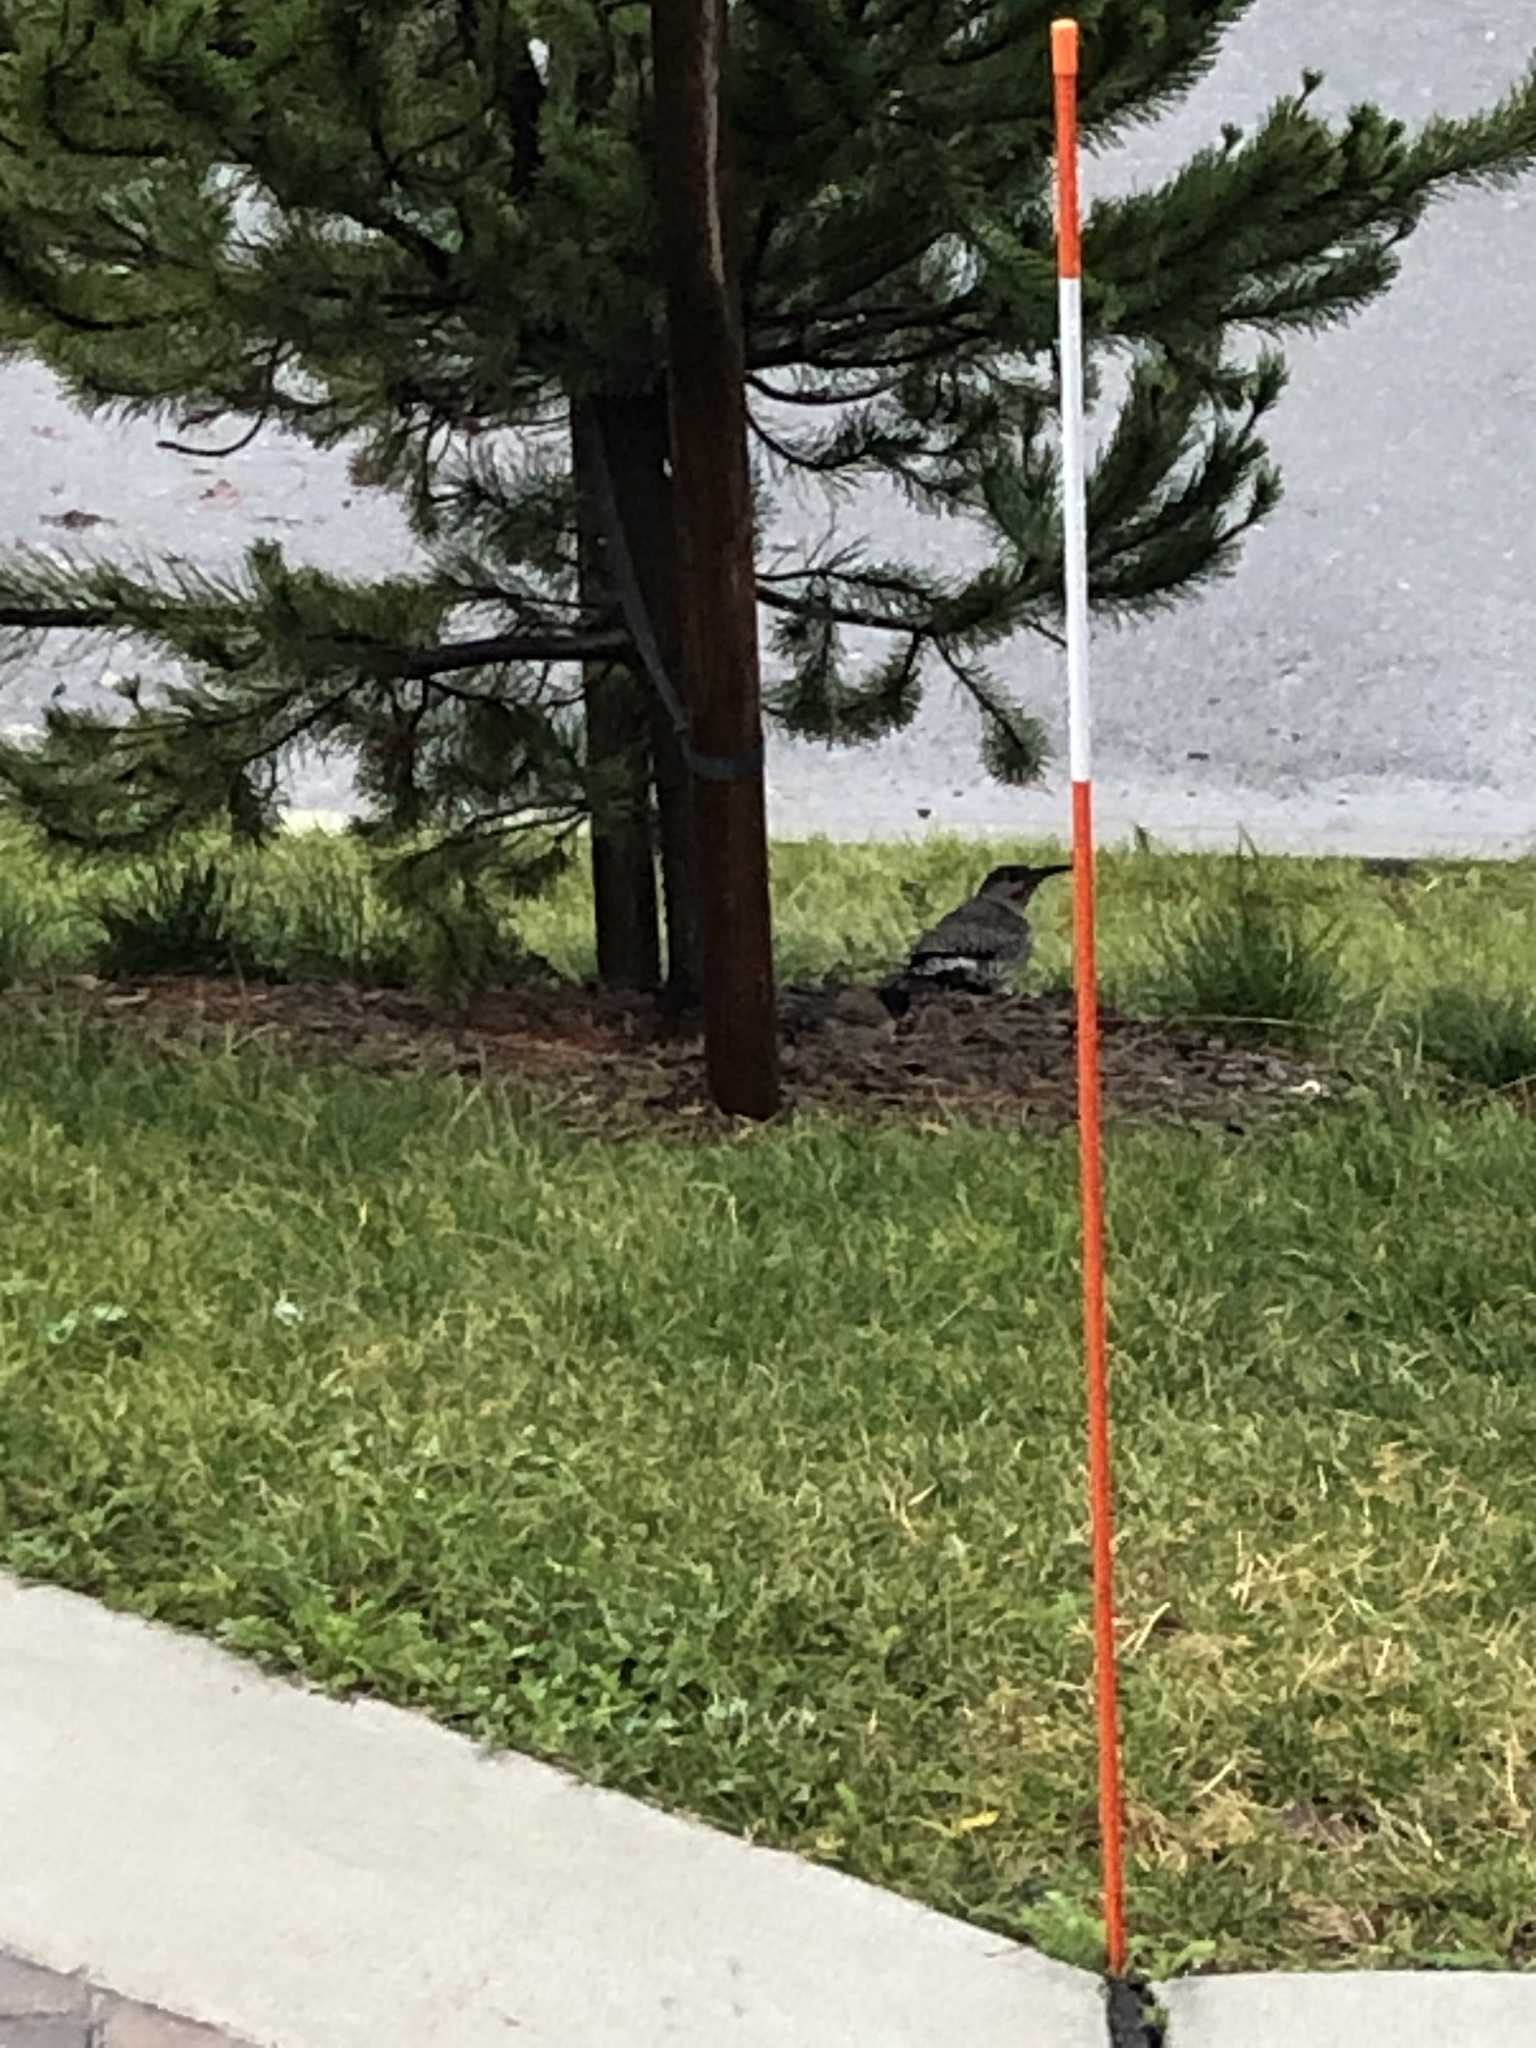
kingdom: Animalia
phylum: Chordata
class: Aves
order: Piciformes
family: Picidae
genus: Colaptes
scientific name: Colaptes auratus
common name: Northern flicker
